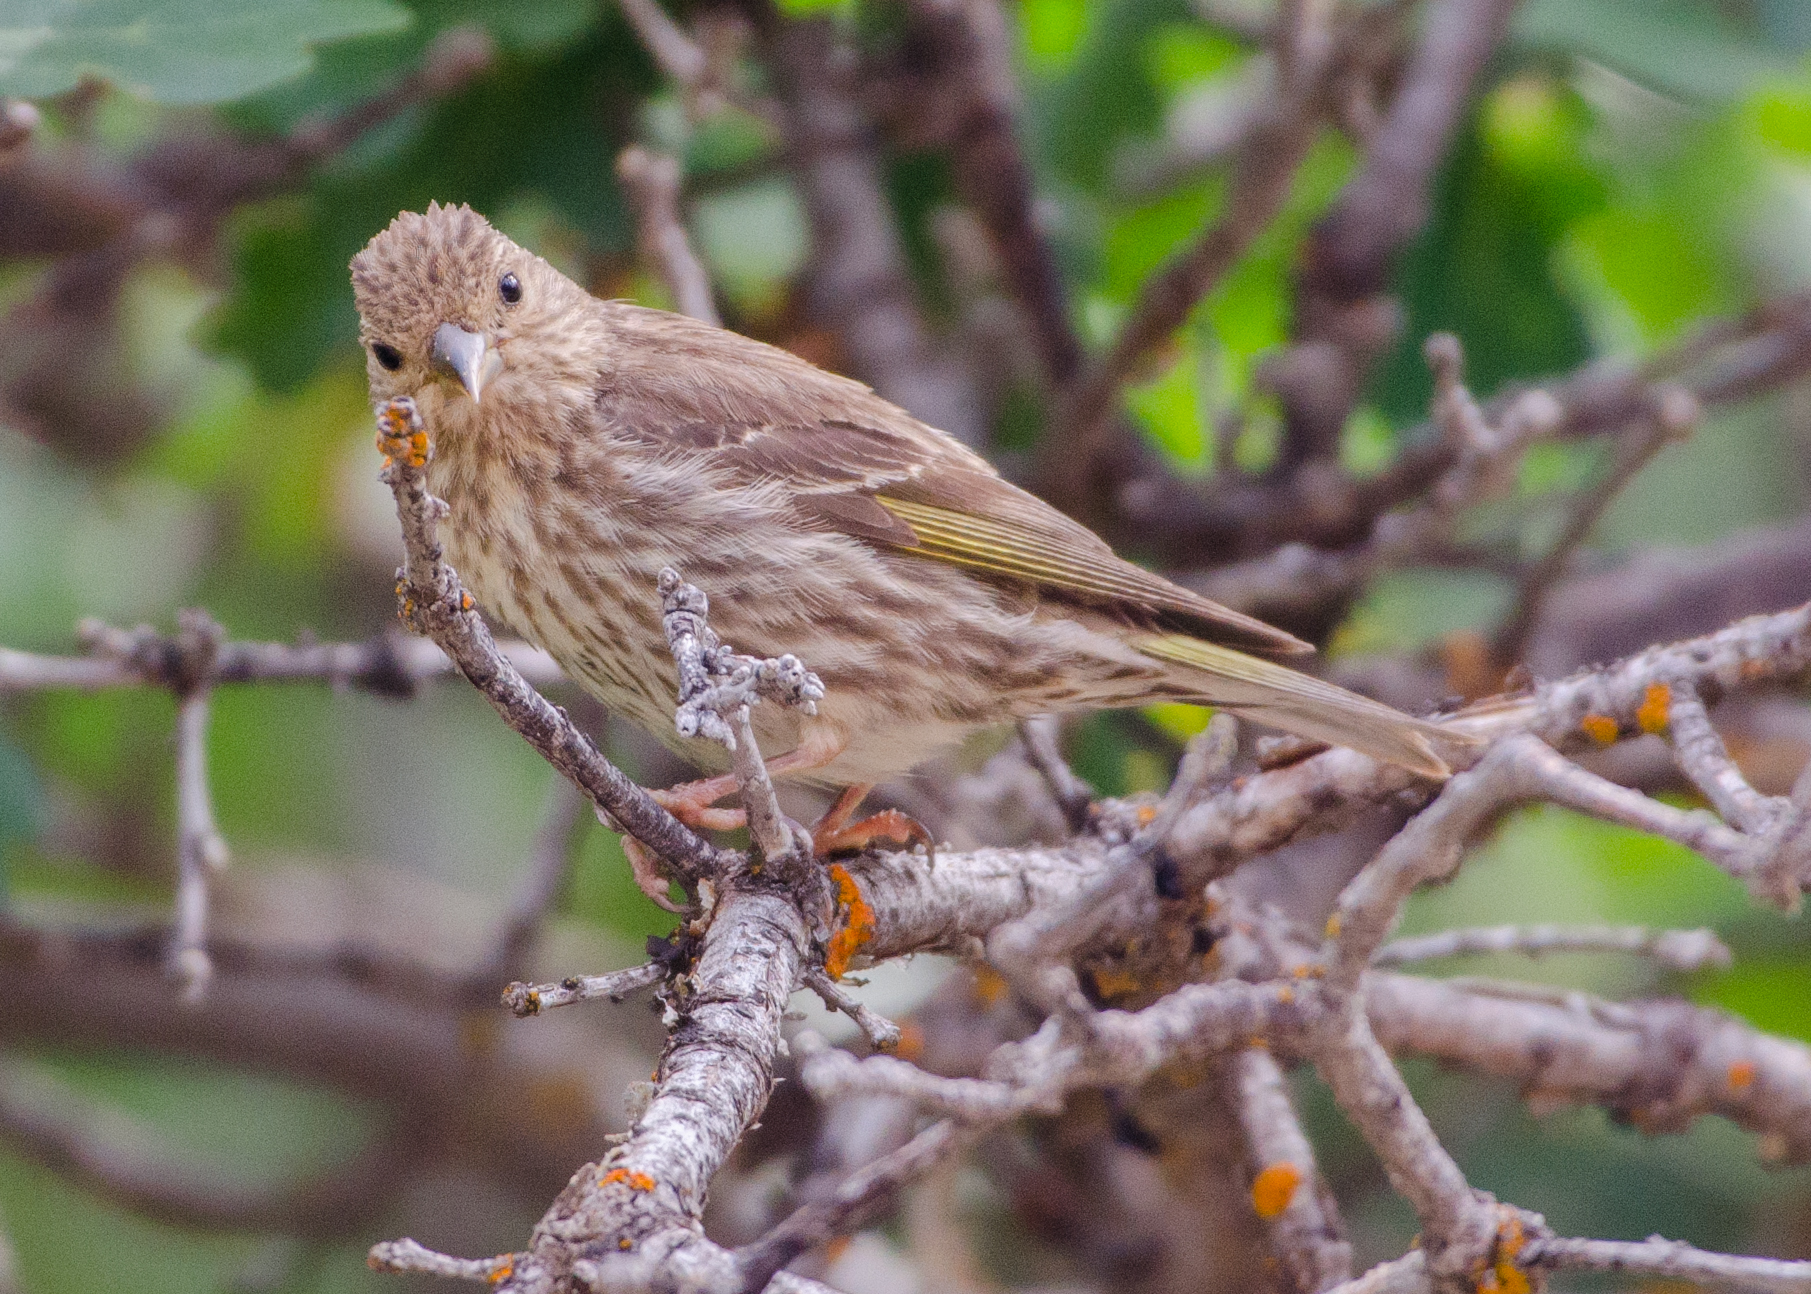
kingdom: Animalia
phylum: Chordata
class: Aves
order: Passeriformes
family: Fringillidae
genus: Spinus
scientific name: Spinus pinus
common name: Pine siskin
